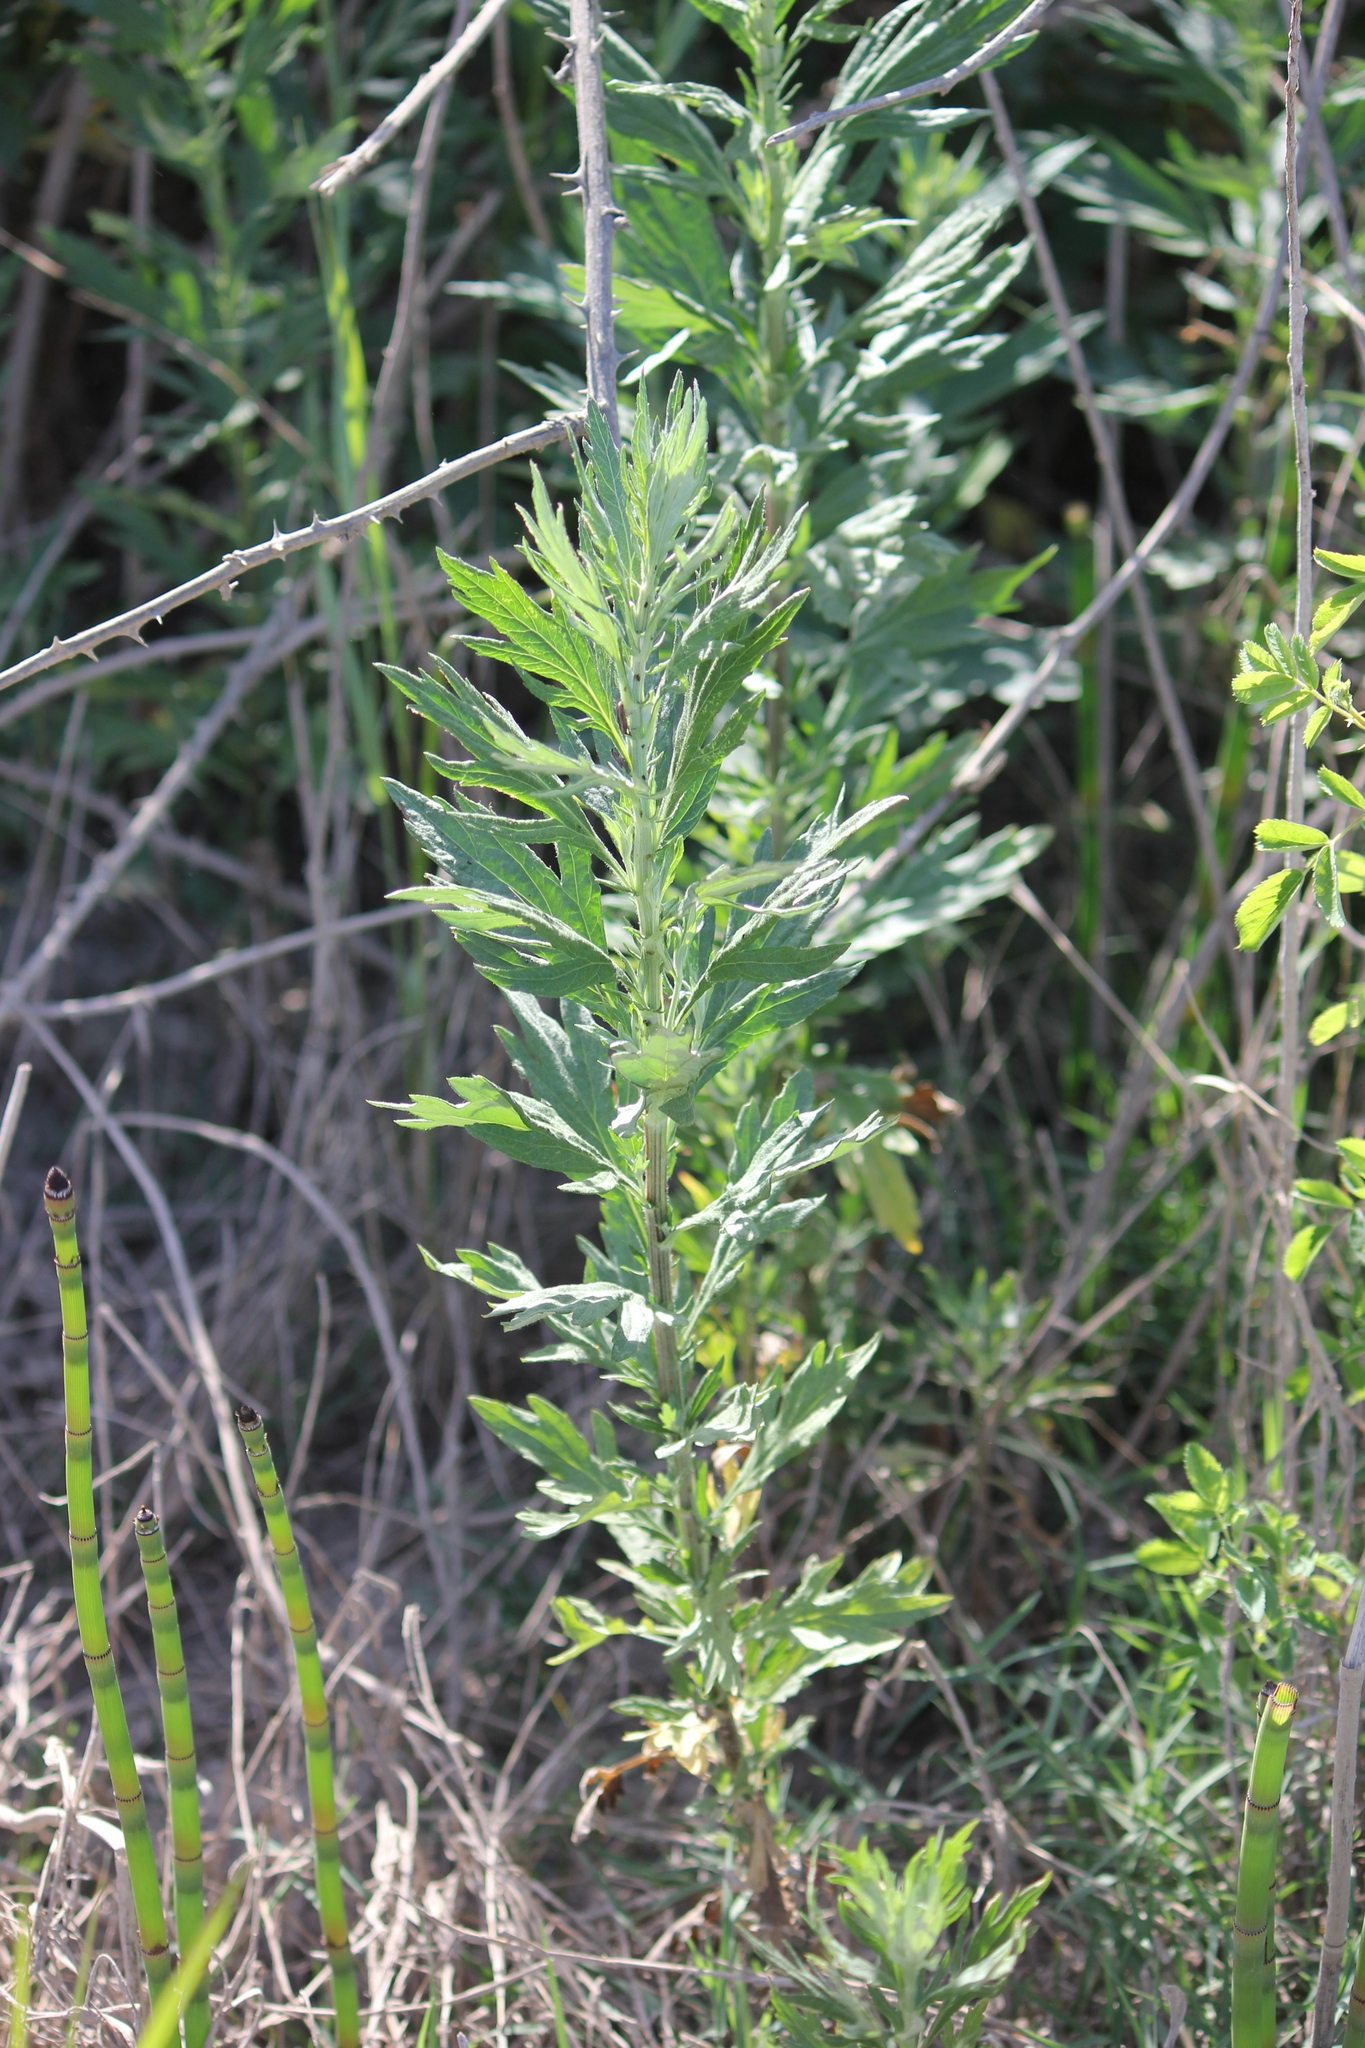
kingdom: Plantae
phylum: Tracheophyta
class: Magnoliopsida
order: Asterales
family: Asteraceae
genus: Artemisia
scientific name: Artemisia douglasiana
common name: Northwest mugwort
